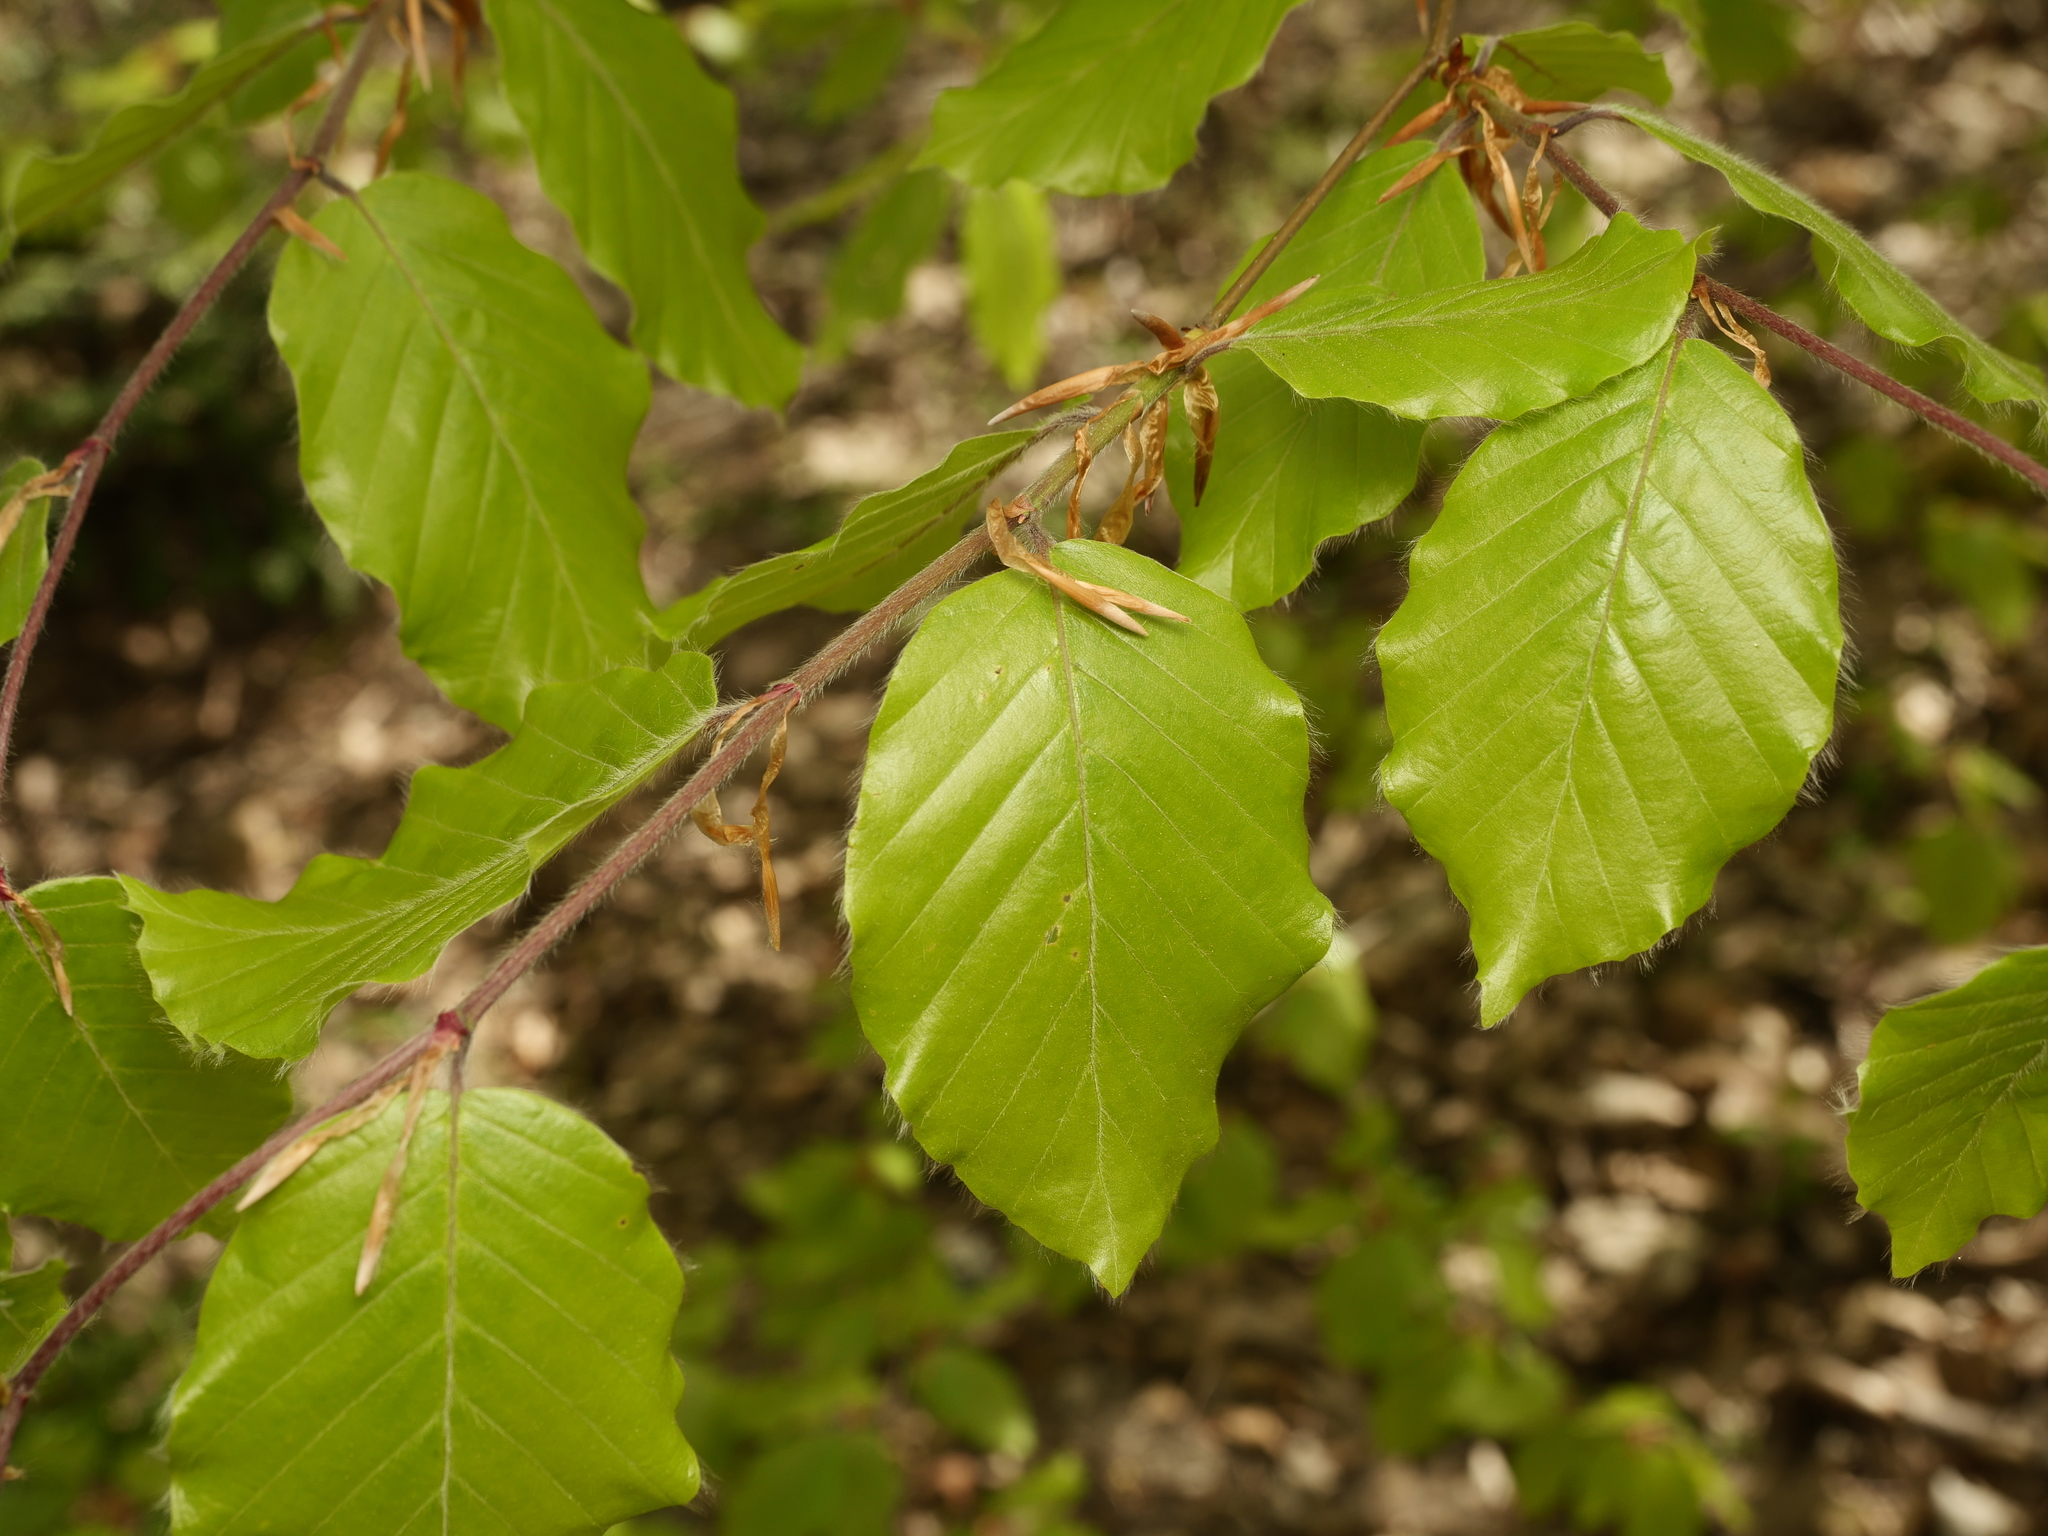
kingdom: Plantae
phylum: Tracheophyta
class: Magnoliopsida
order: Fagales
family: Fagaceae
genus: Fagus
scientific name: Fagus sylvatica
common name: Beech
